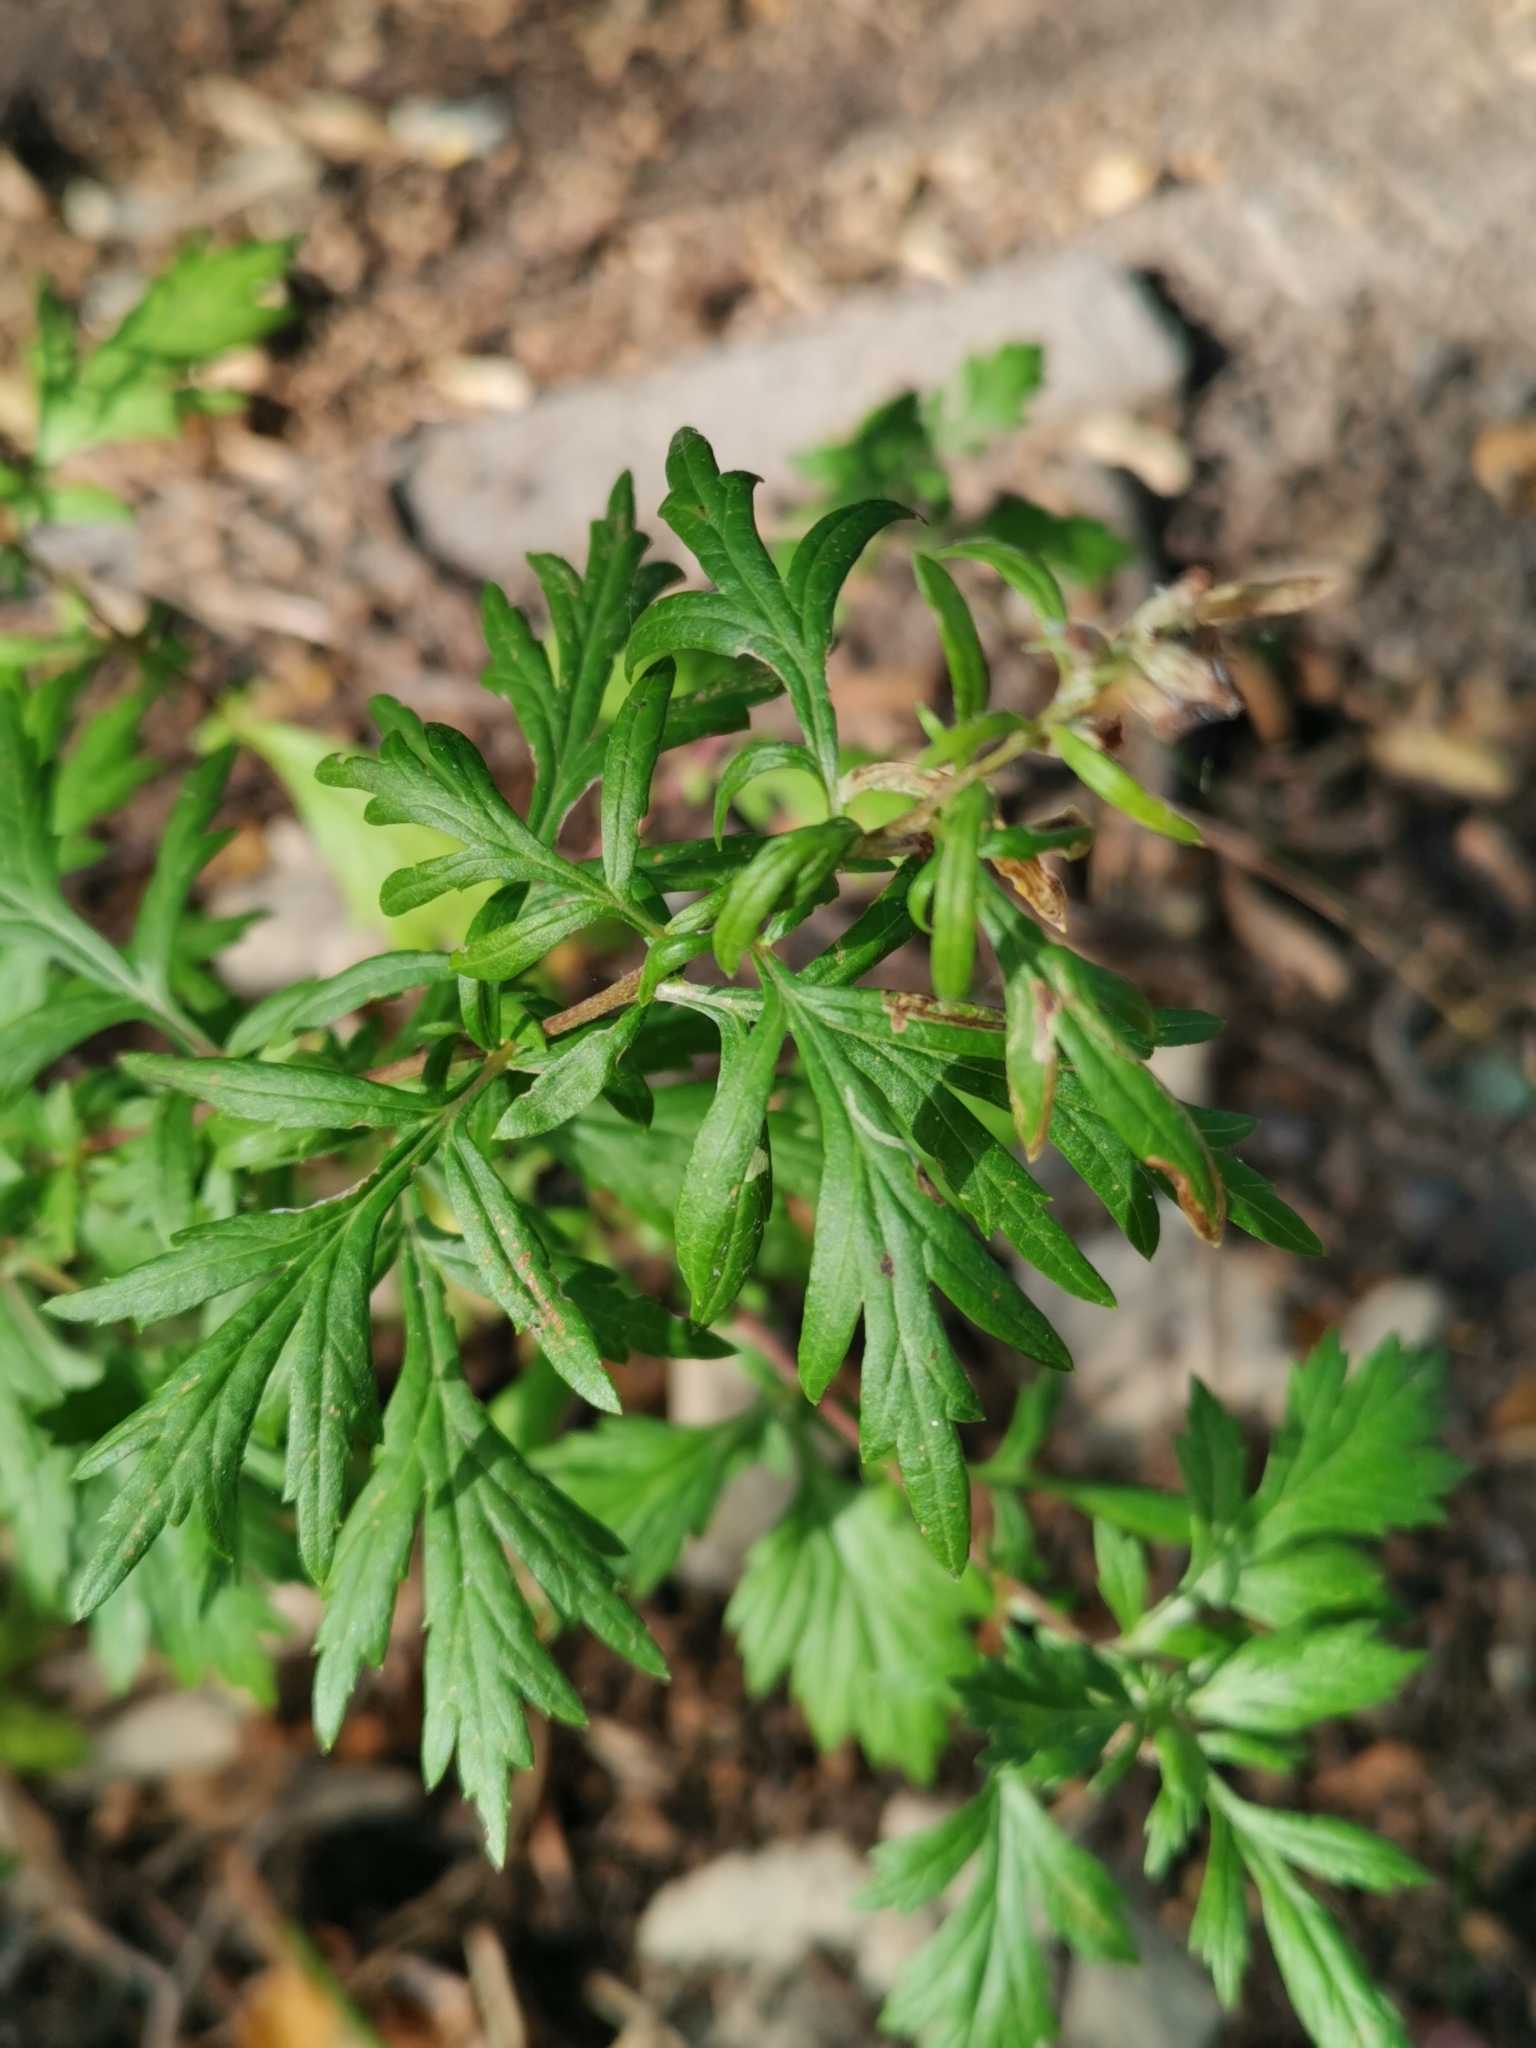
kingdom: Plantae
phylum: Tracheophyta
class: Magnoliopsida
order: Asterales
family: Asteraceae
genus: Artemisia
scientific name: Artemisia vulgaris
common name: Mugwort
